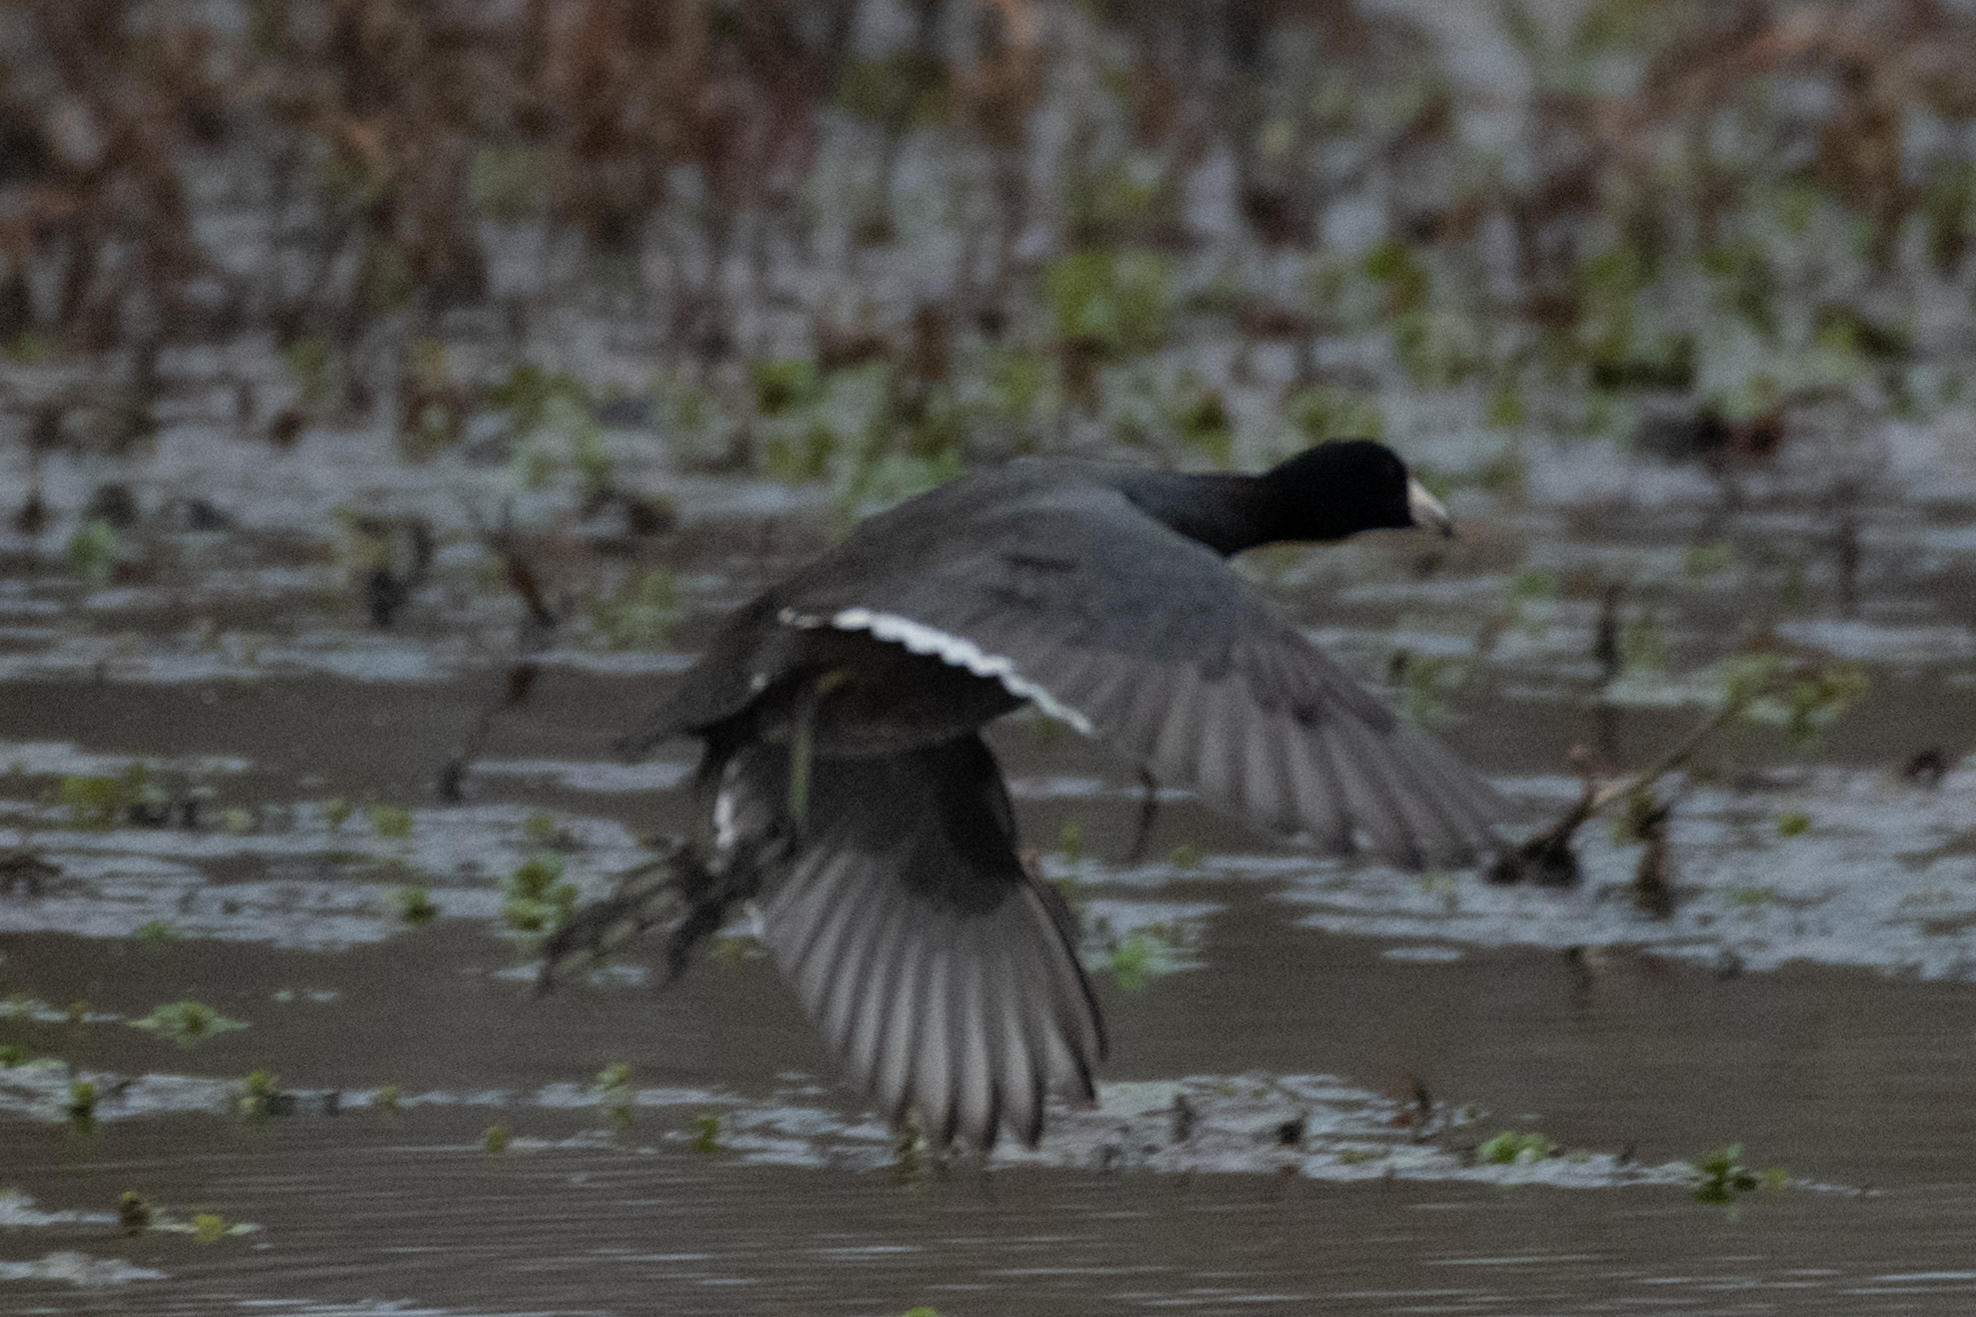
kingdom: Animalia
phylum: Chordata
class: Aves
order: Gruiformes
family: Rallidae
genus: Fulica
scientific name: Fulica americana
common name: American coot
